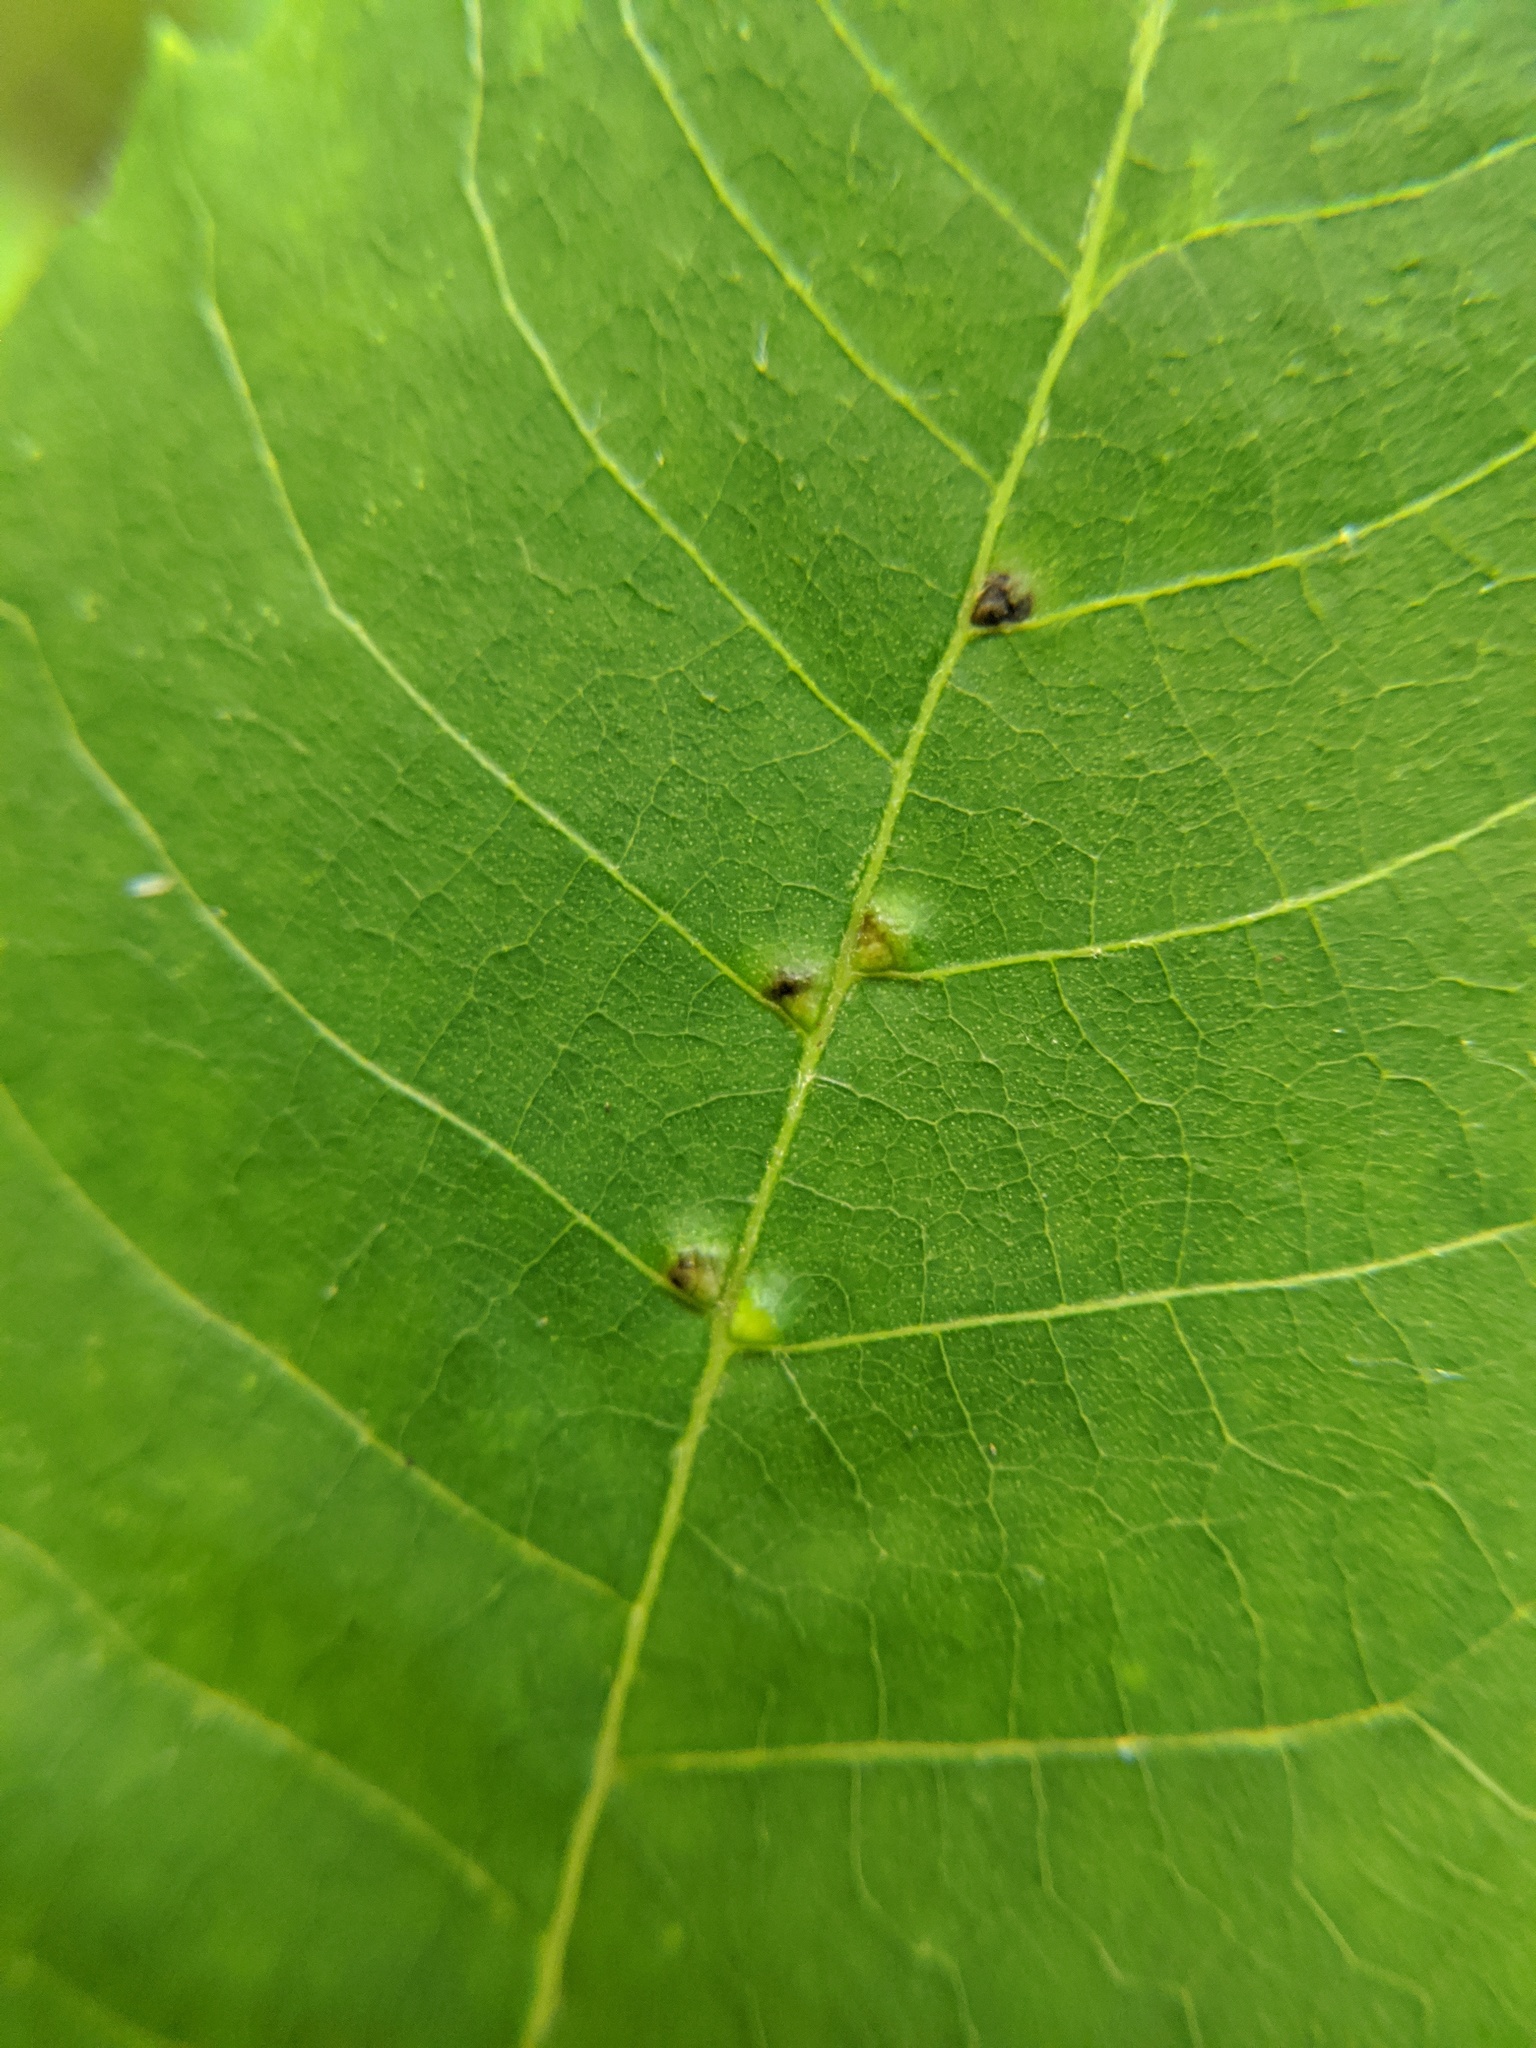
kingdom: Animalia
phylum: Arthropoda
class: Arachnida
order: Trombidiformes
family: Eriophyidae
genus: Aceria
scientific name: Aceria
